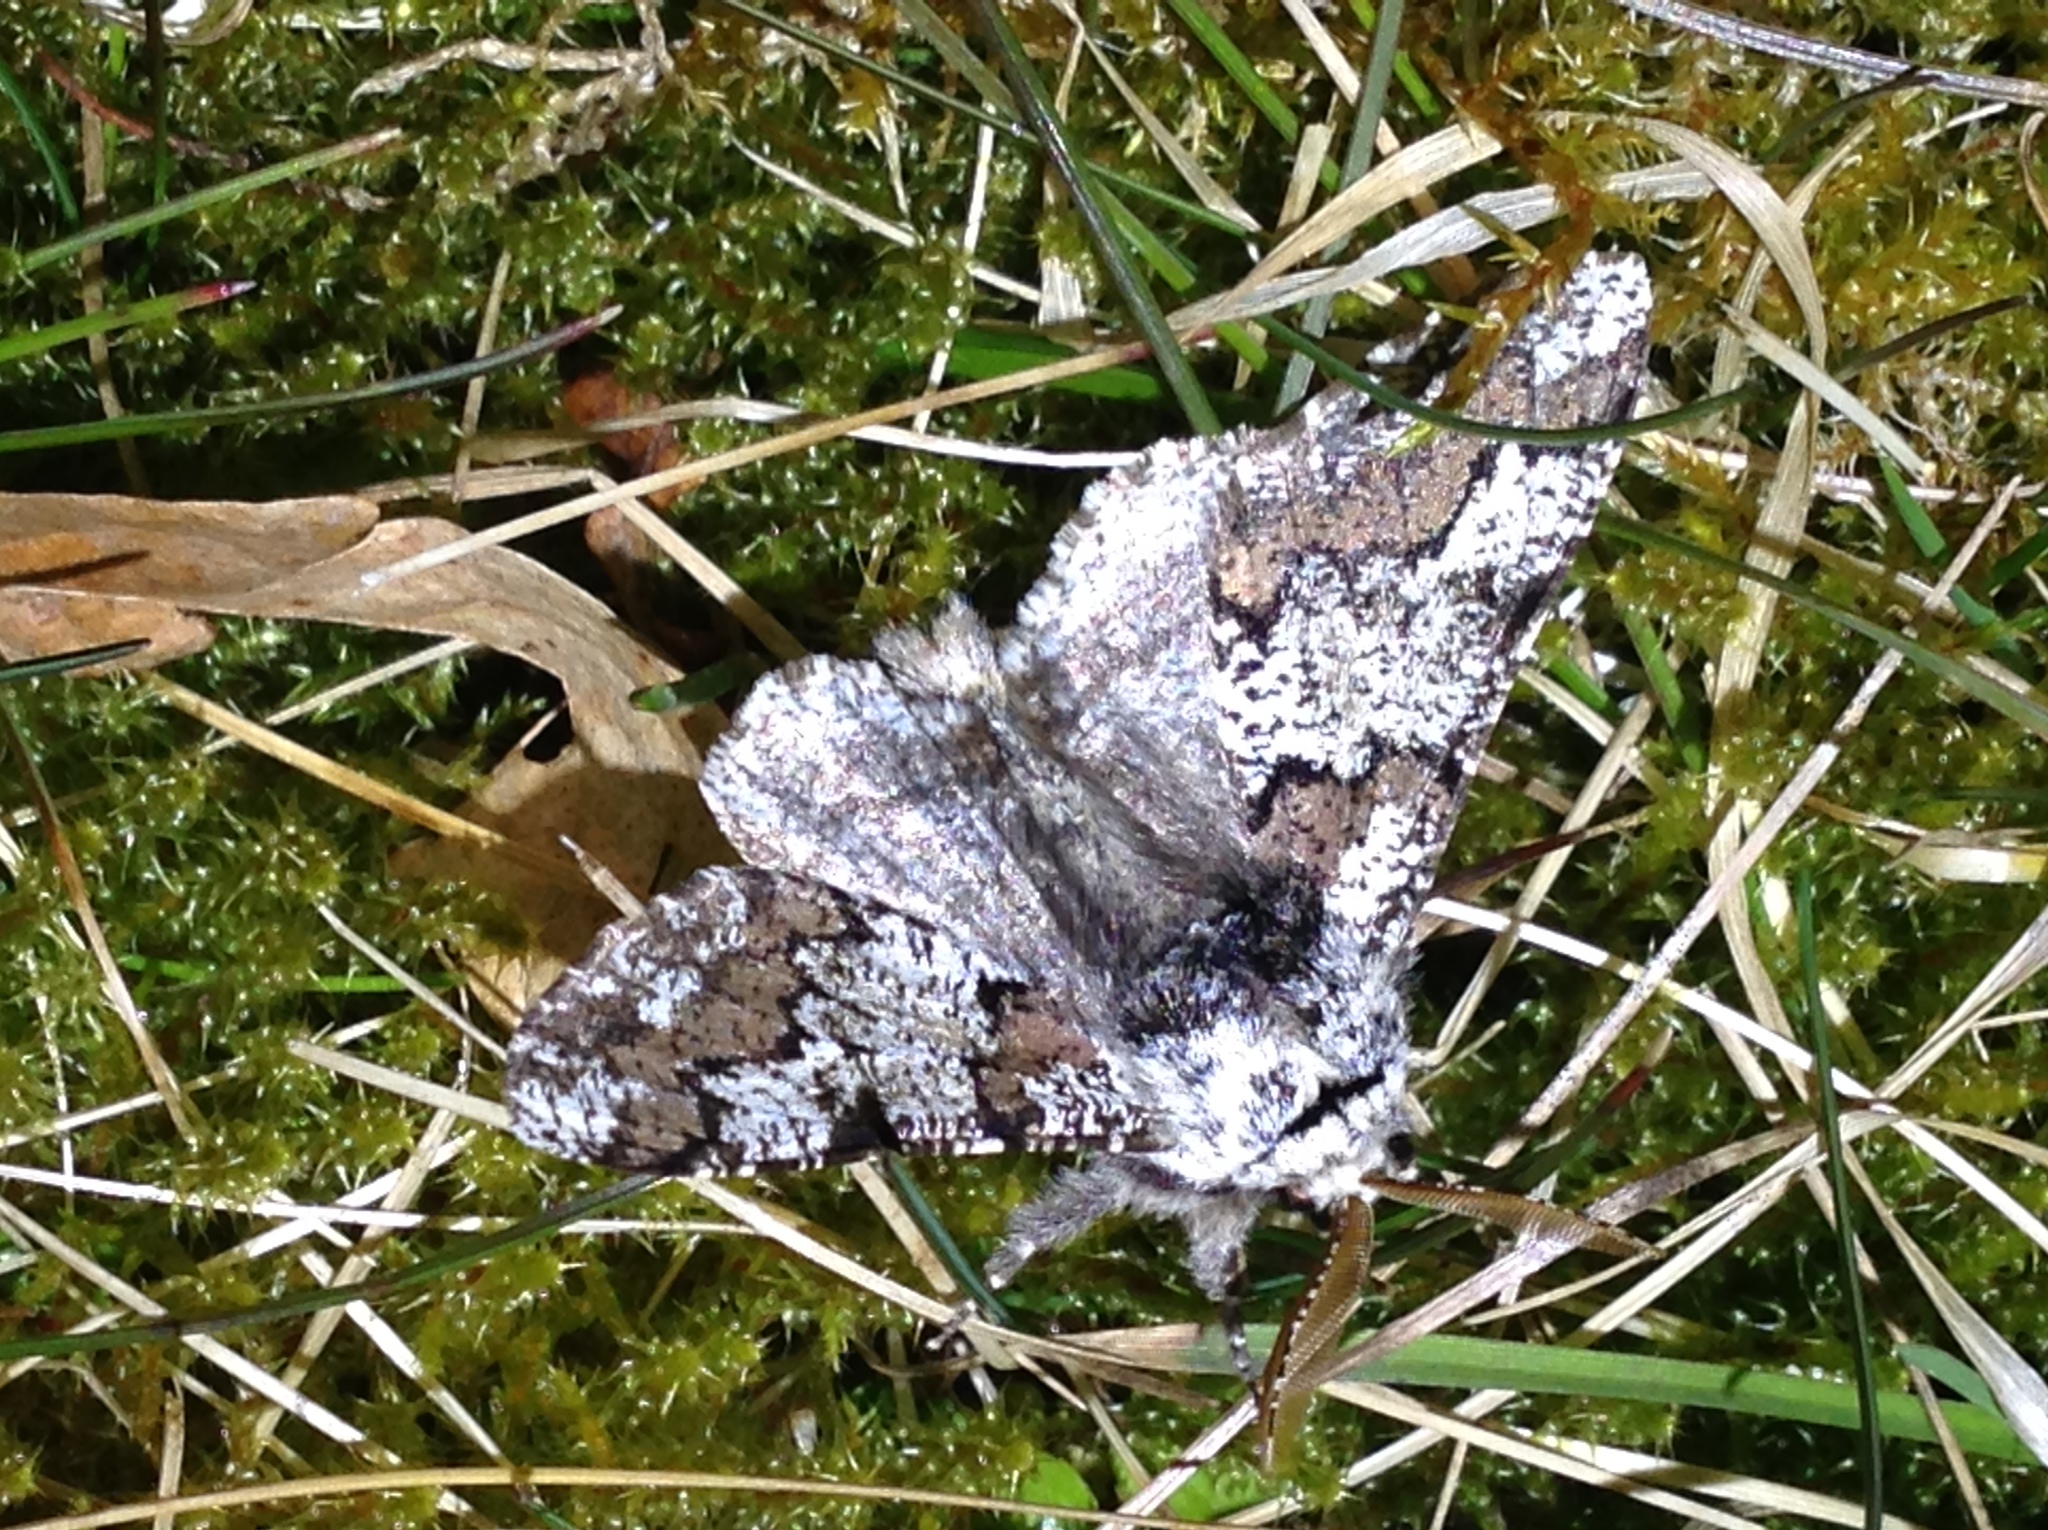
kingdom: Animalia
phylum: Arthropoda
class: Insecta
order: Lepidoptera
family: Geometridae
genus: Biston
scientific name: Biston strataria
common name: Oak beauty
